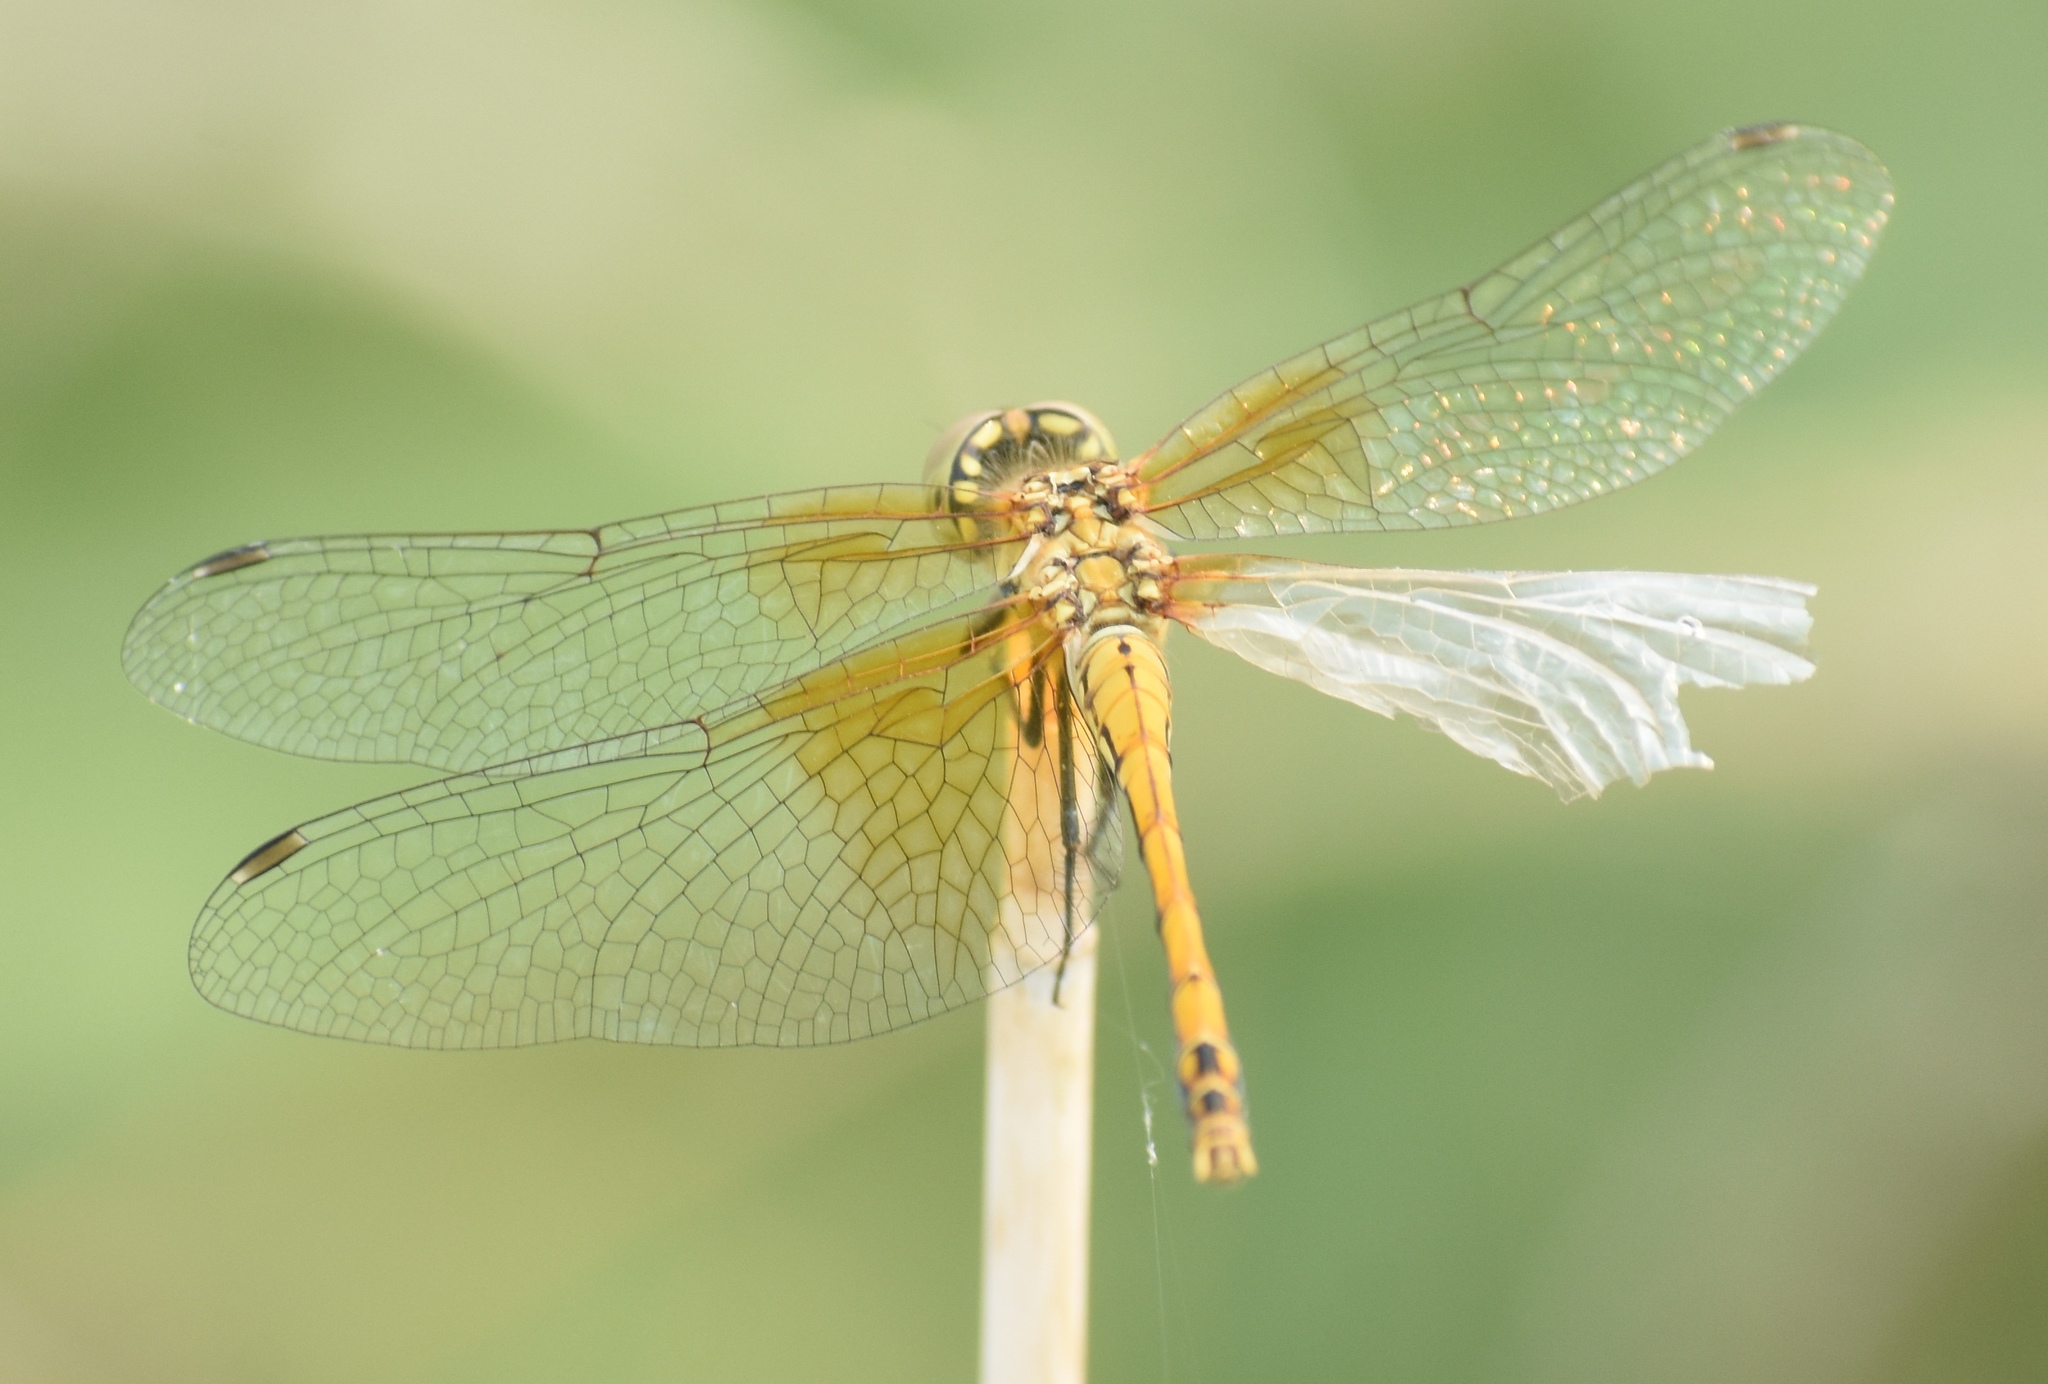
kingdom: Animalia
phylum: Arthropoda
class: Insecta
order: Odonata
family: Libellulidae
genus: Sympetrum
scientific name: Sympetrum semicinctum
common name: Band-winged meadowhawk
